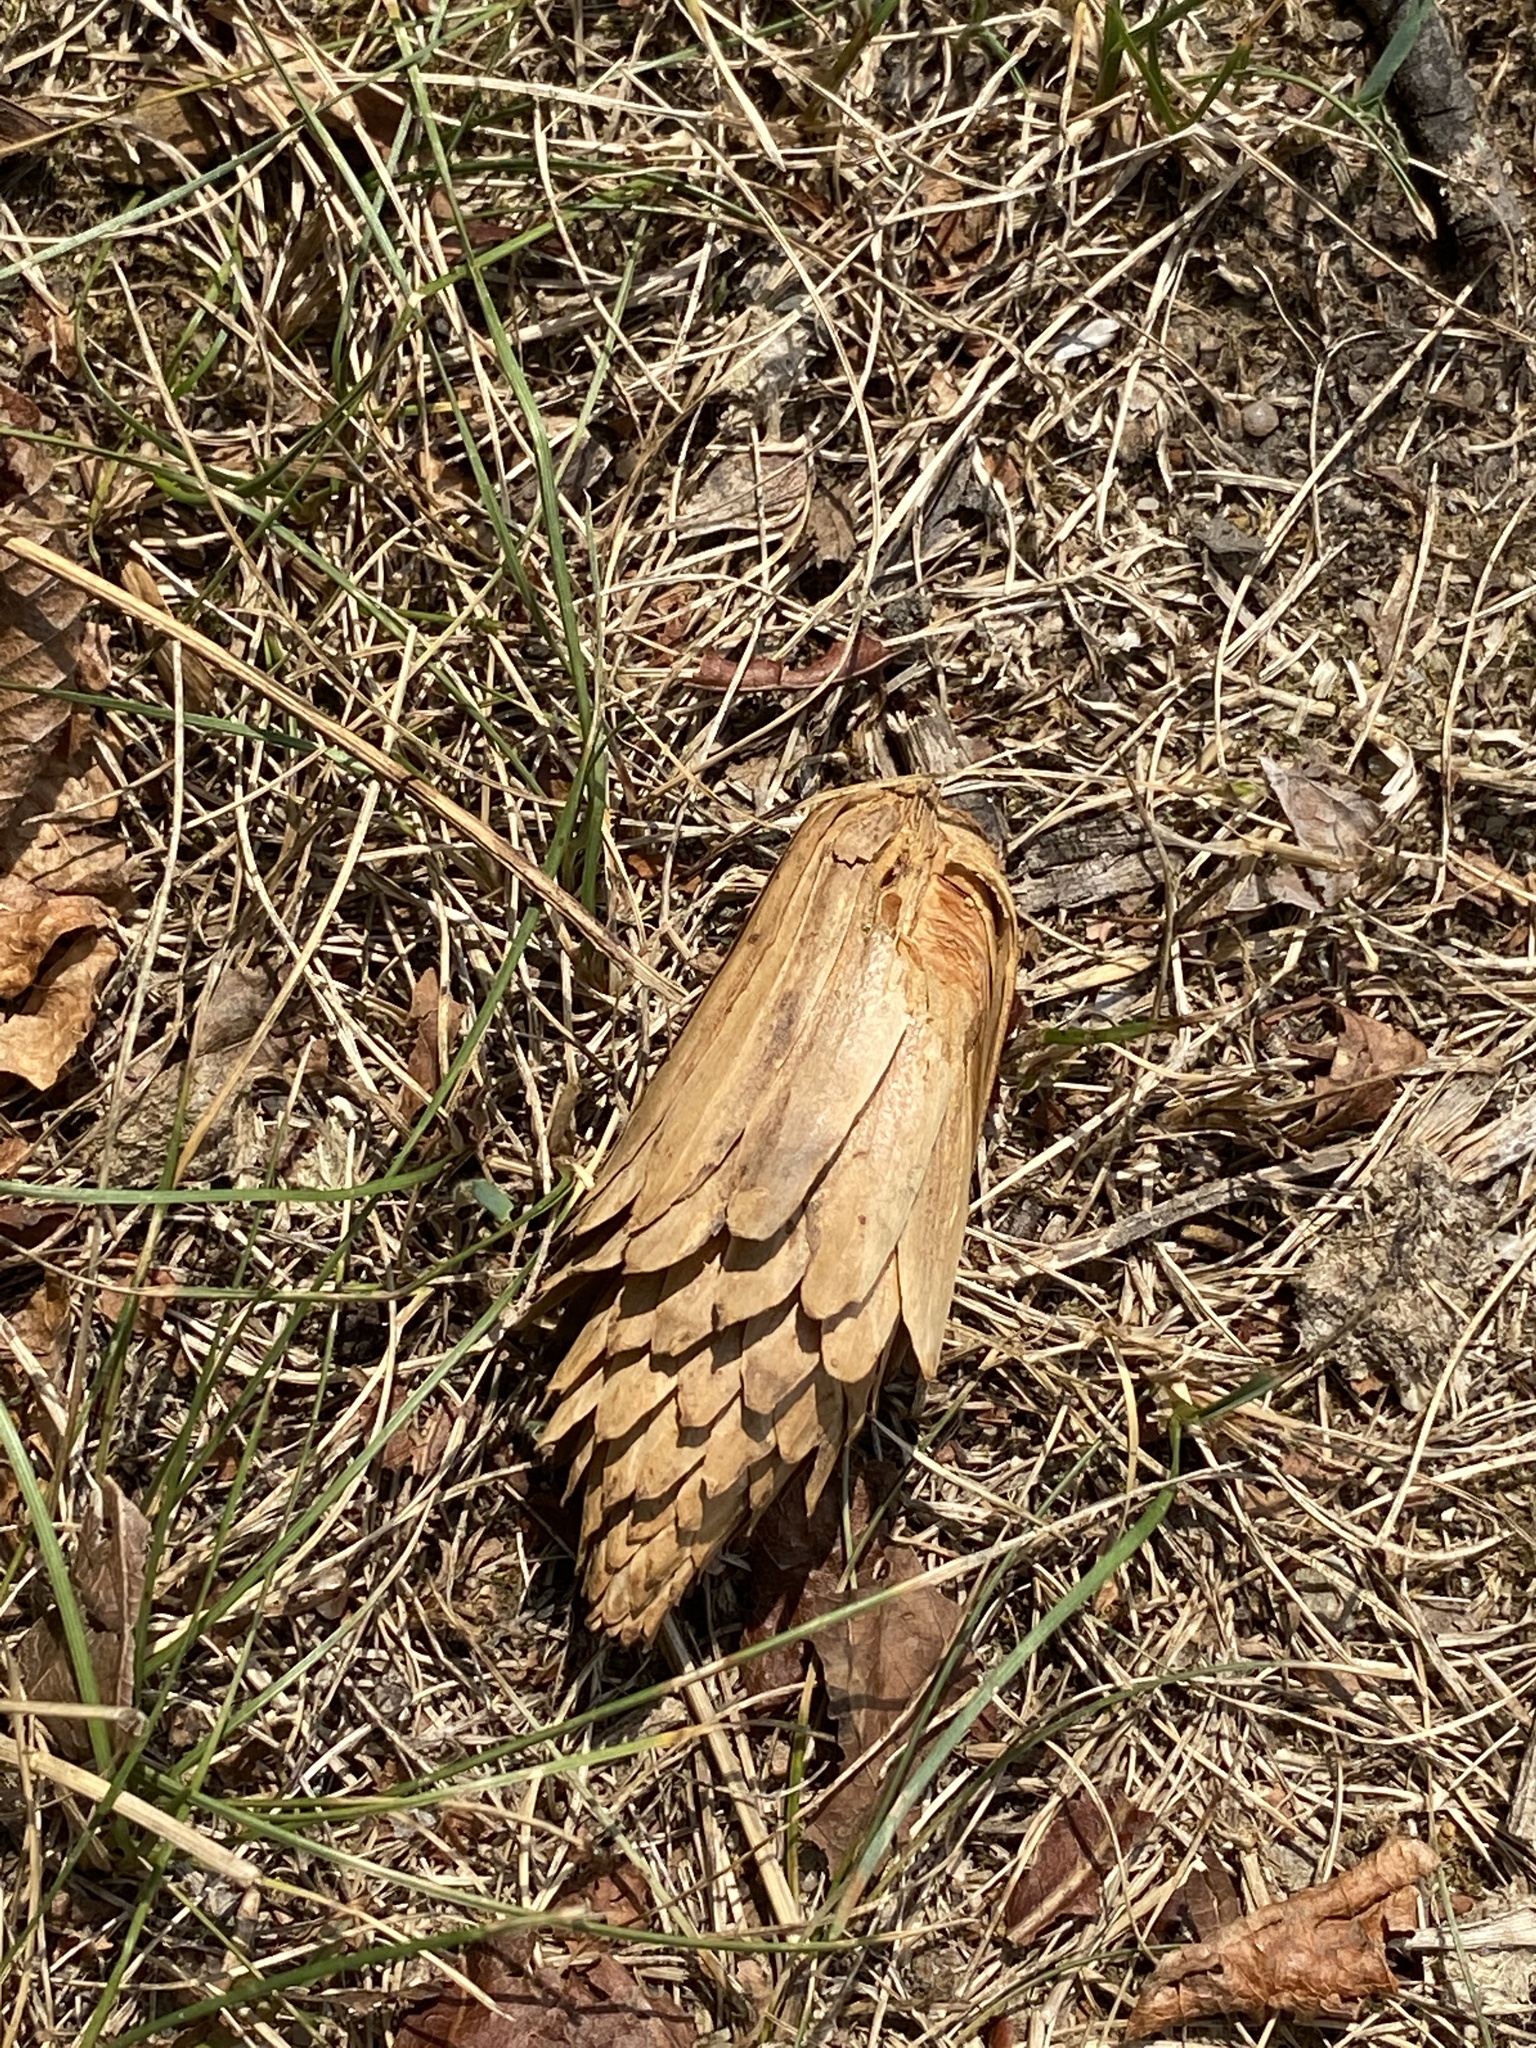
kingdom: Plantae
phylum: Tracheophyta
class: Magnoliopsida
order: Magnoliales
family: Magnoliaceae
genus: Liriodendron
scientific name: Liriodendron tulipifera
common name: Tulip tree
